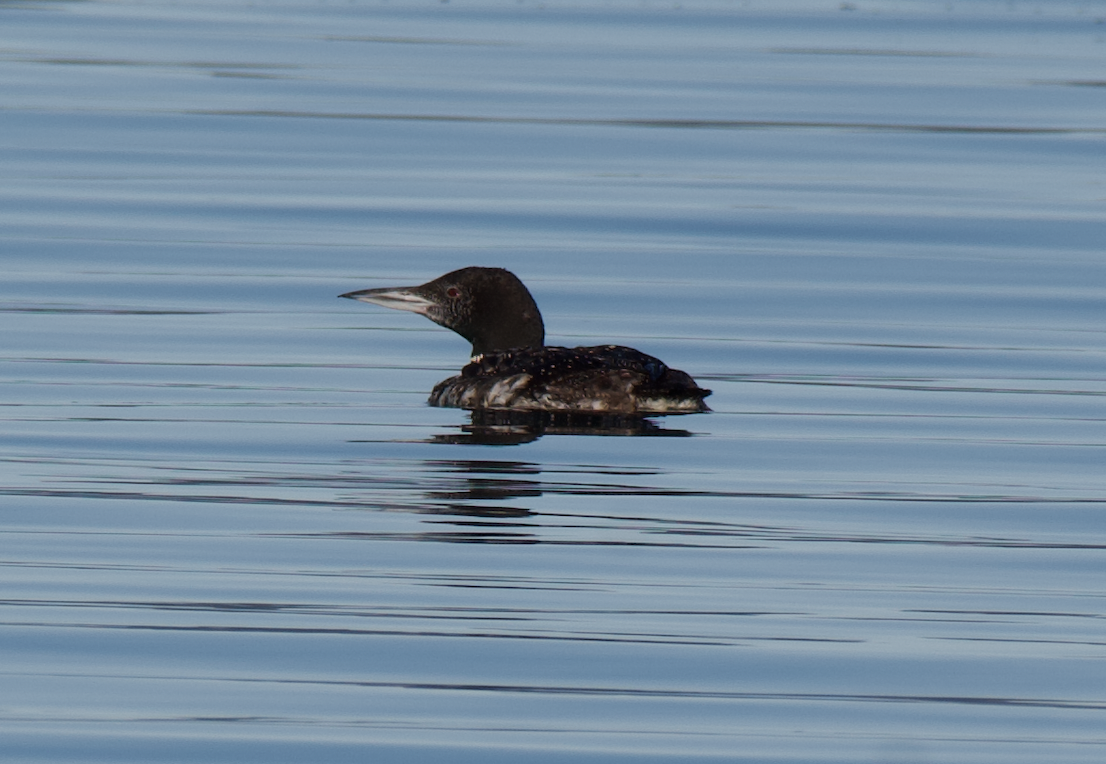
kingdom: Animalia
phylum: Chordata
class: Aves
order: Gaviiformes
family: Gaviidae
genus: Gavia
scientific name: Gavia immer
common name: Common loon
